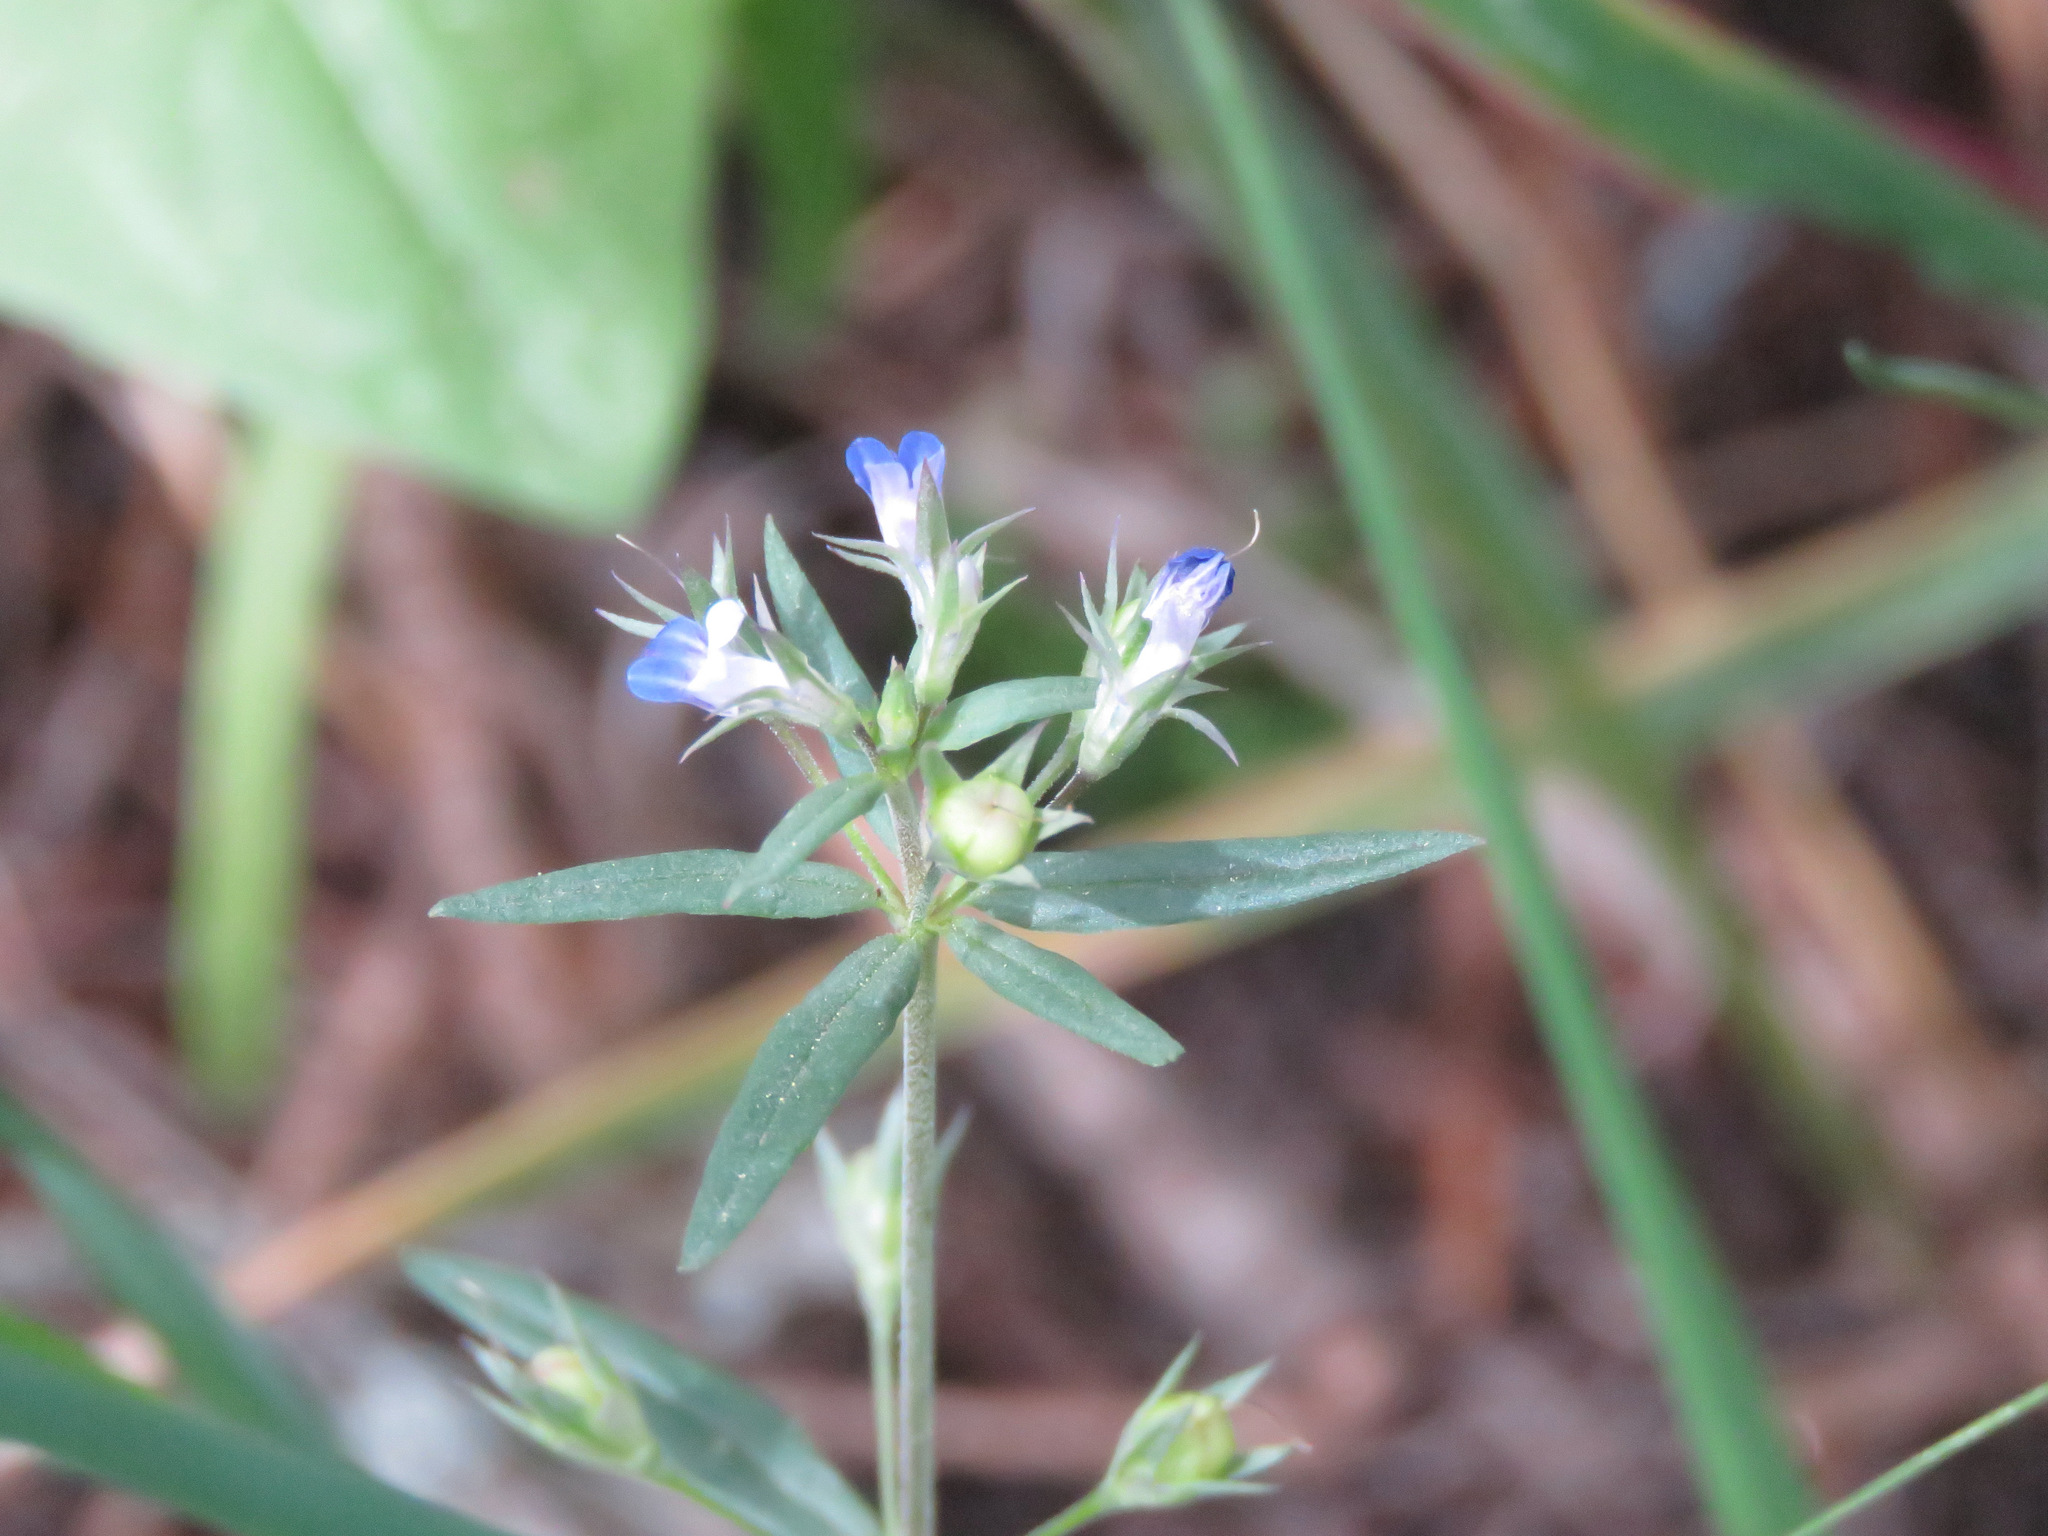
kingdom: Plantae
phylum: Tracheophyta
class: Magnoliopsida
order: Lamiales
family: Plantaginaceae
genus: Collinsia
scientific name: Collinsia parviflora
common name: Blue-lips
